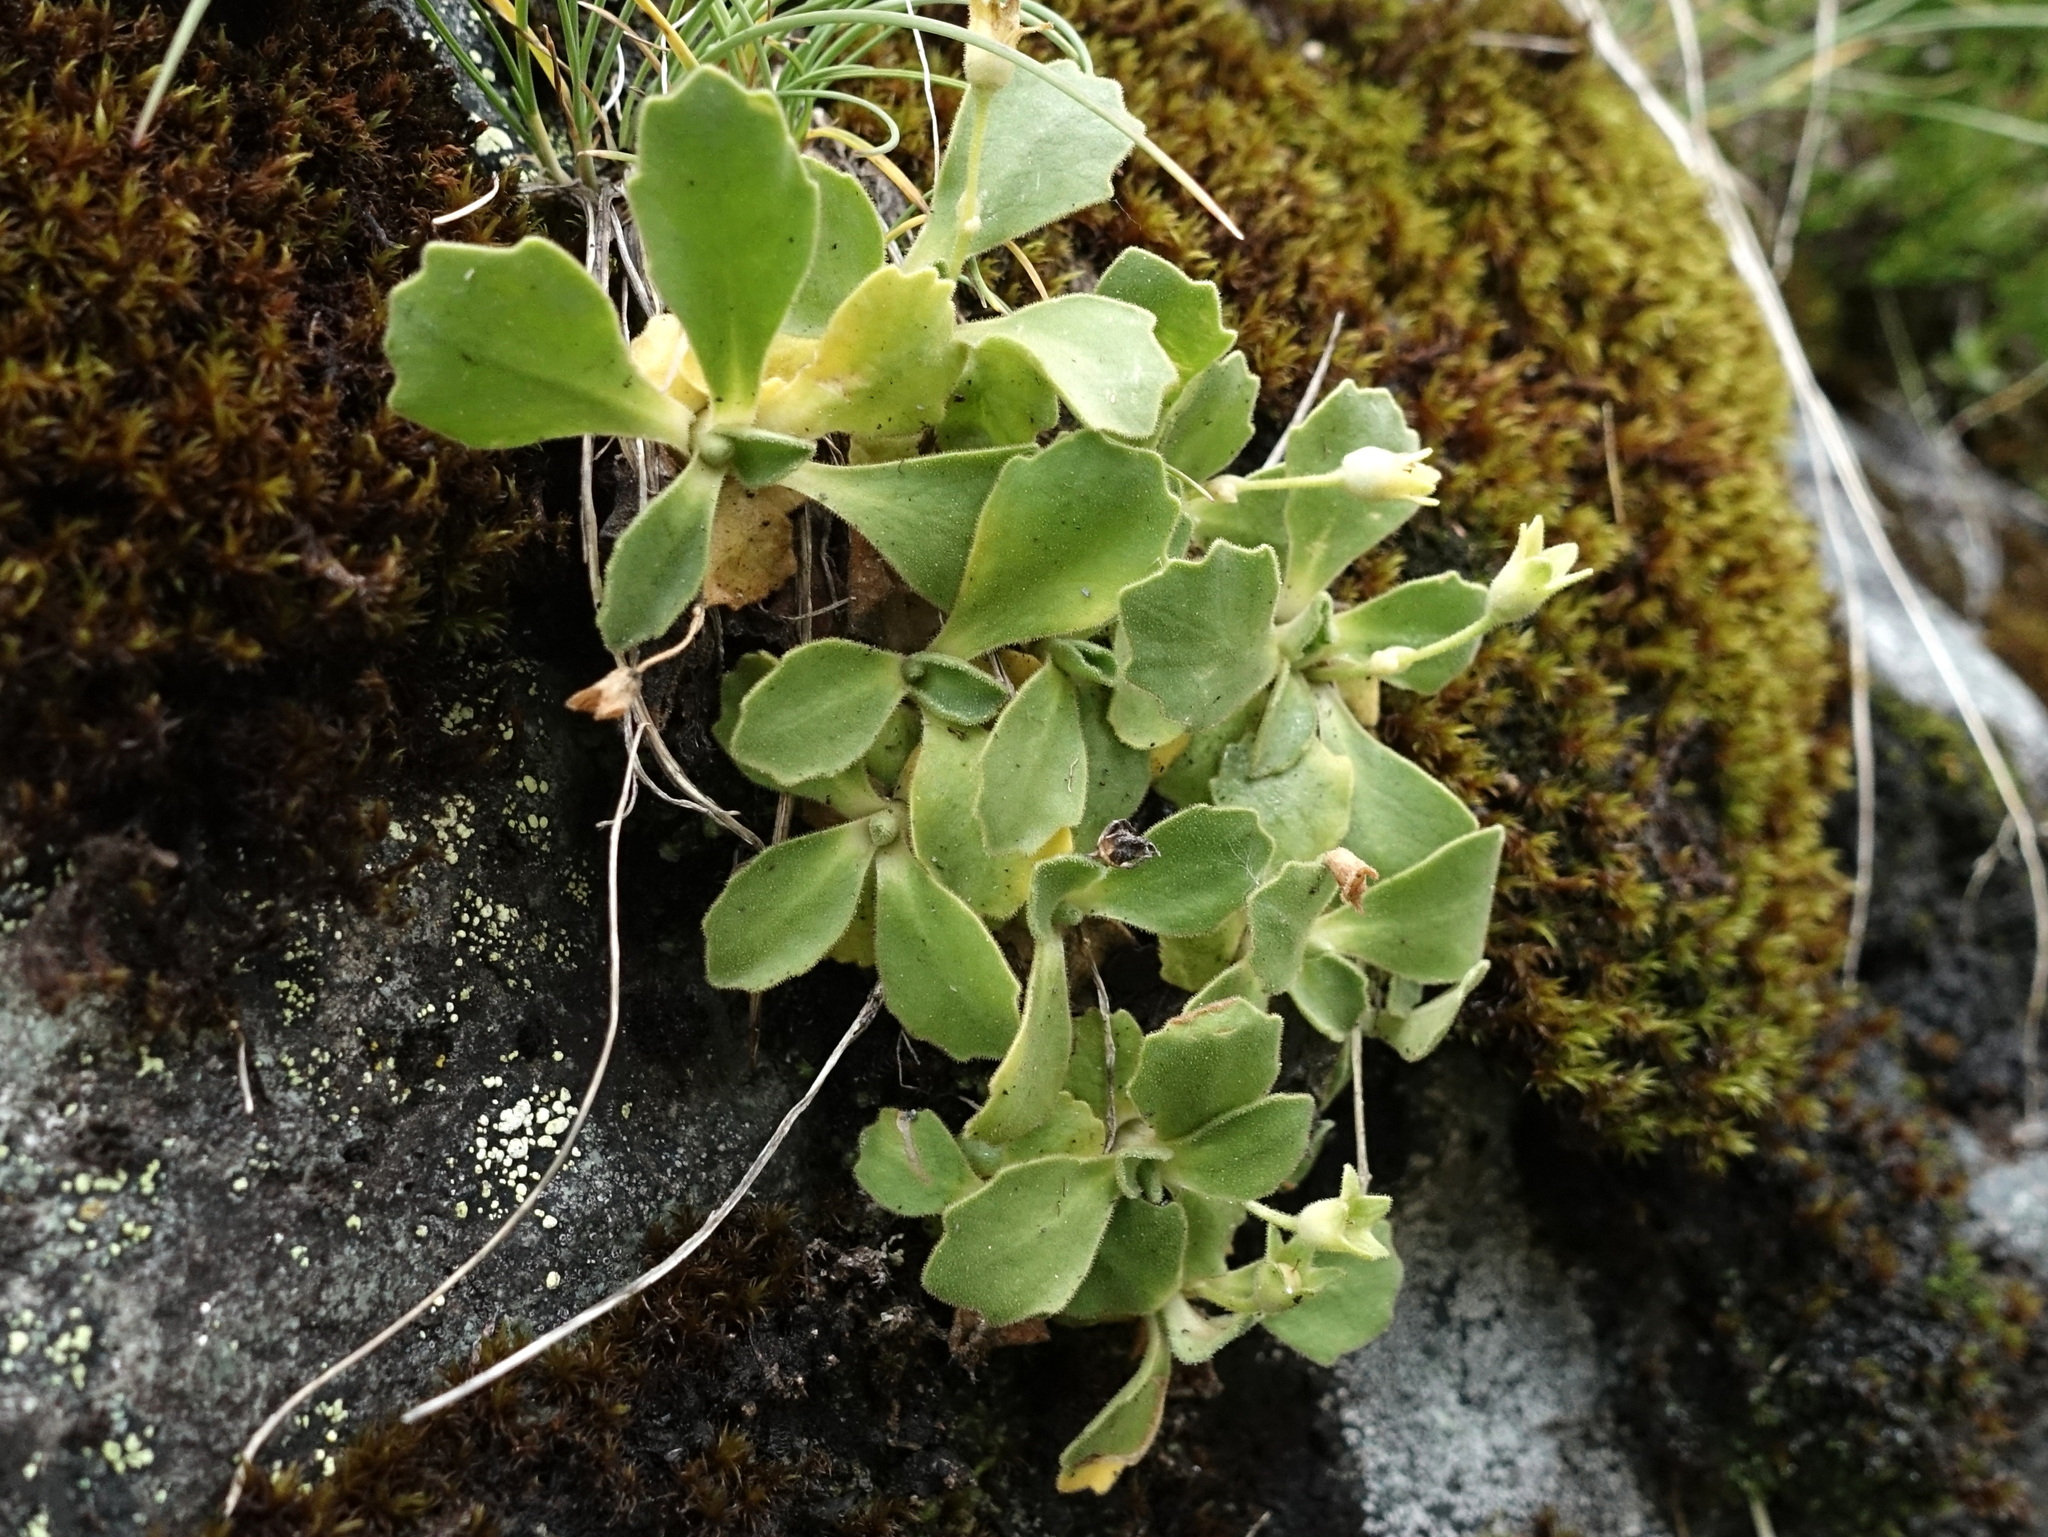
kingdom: Plantae
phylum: Tracheophyta
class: Magnoliopsida
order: Ericales
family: Primulaceae
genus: Primula
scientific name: Primula hirsuta
